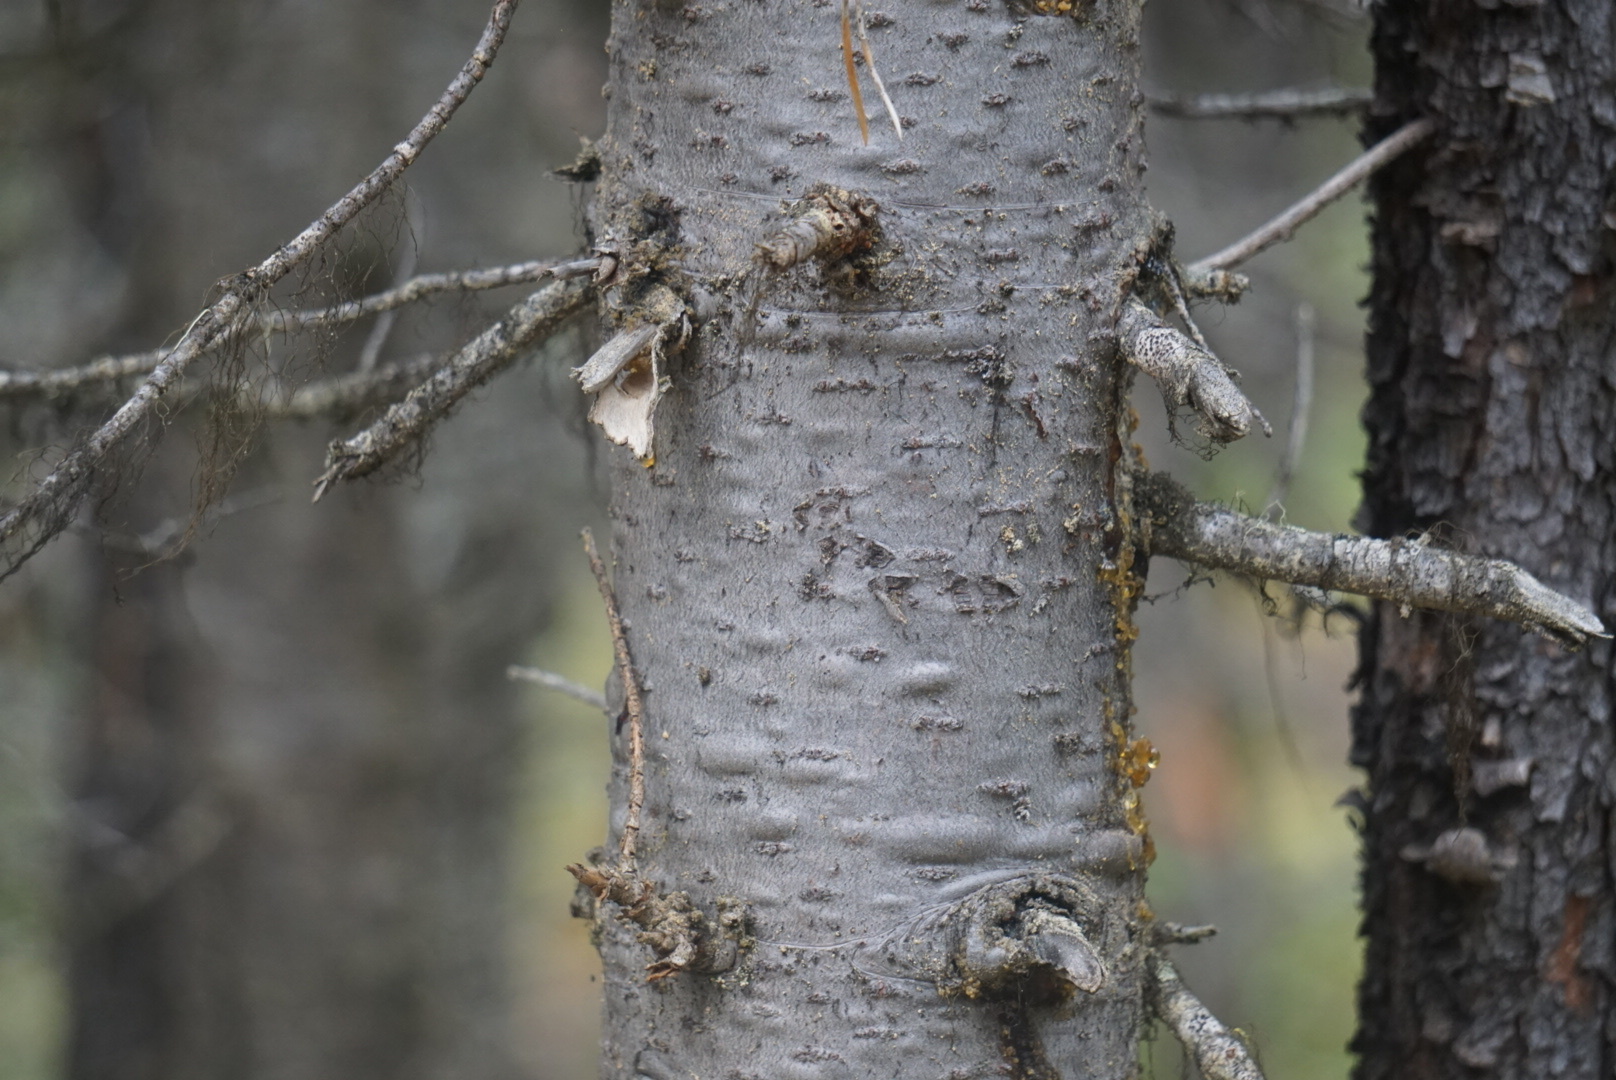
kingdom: Plantae
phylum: Tracheophyta
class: Pinopsida
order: Pinales
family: Pinaceae
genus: Abies
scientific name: Abies lasiocarpa
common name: Subalpine fir
